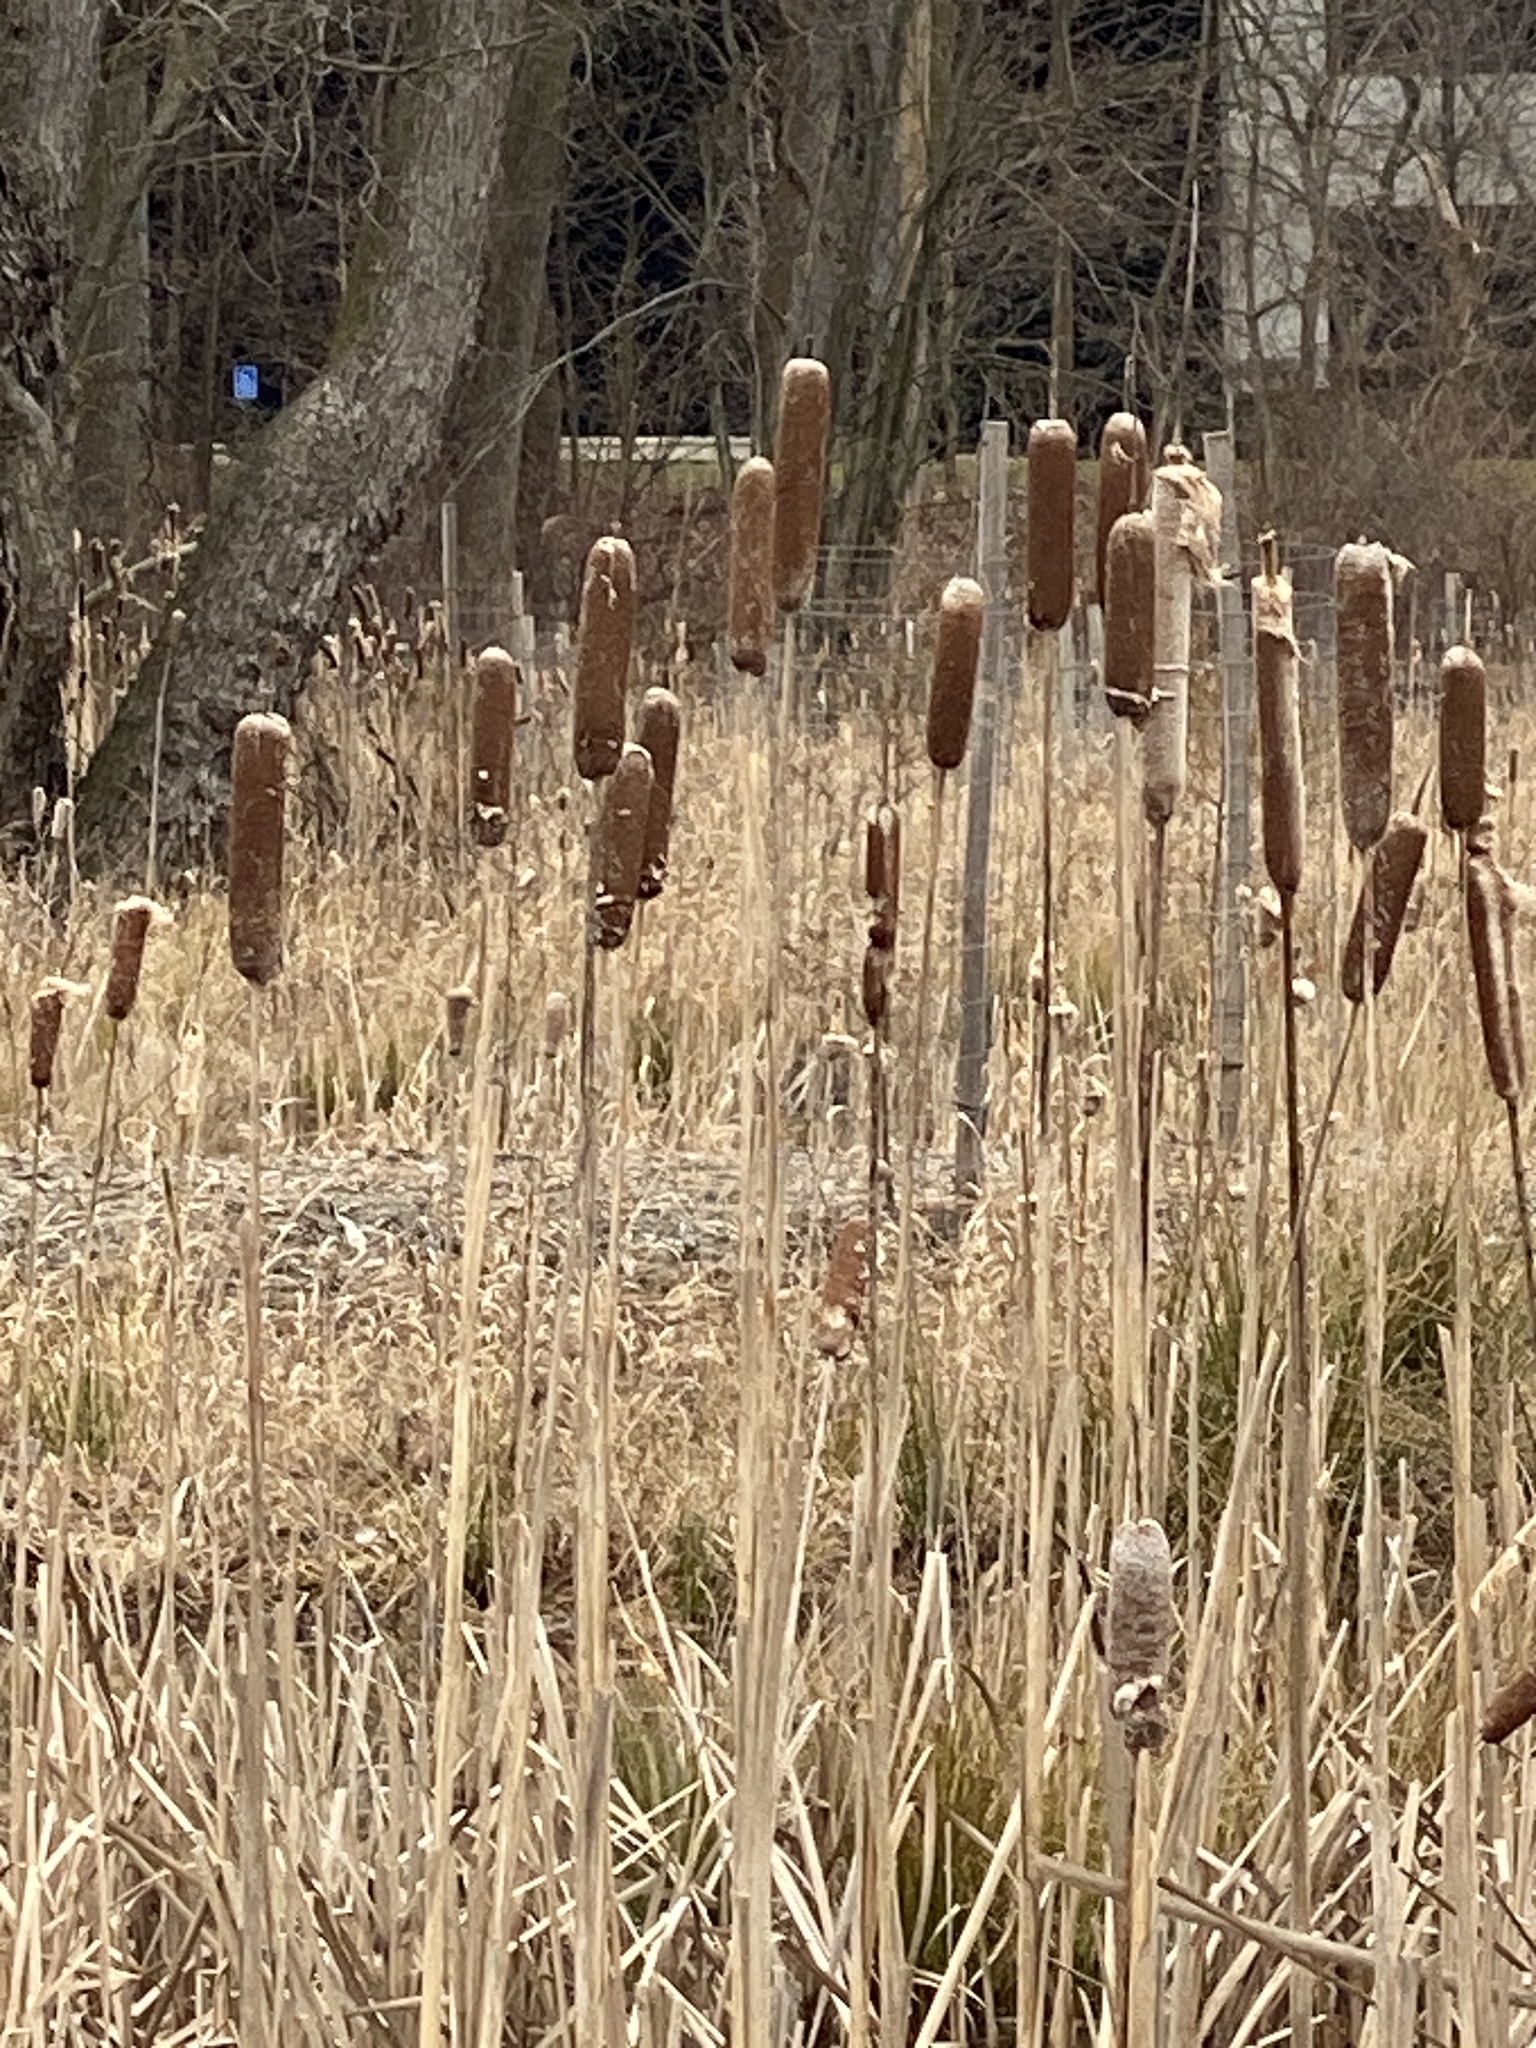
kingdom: Plantae
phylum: Tracheophyta
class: Liliopsida
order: Poales
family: Typhaceae
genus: Typha
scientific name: Typha
